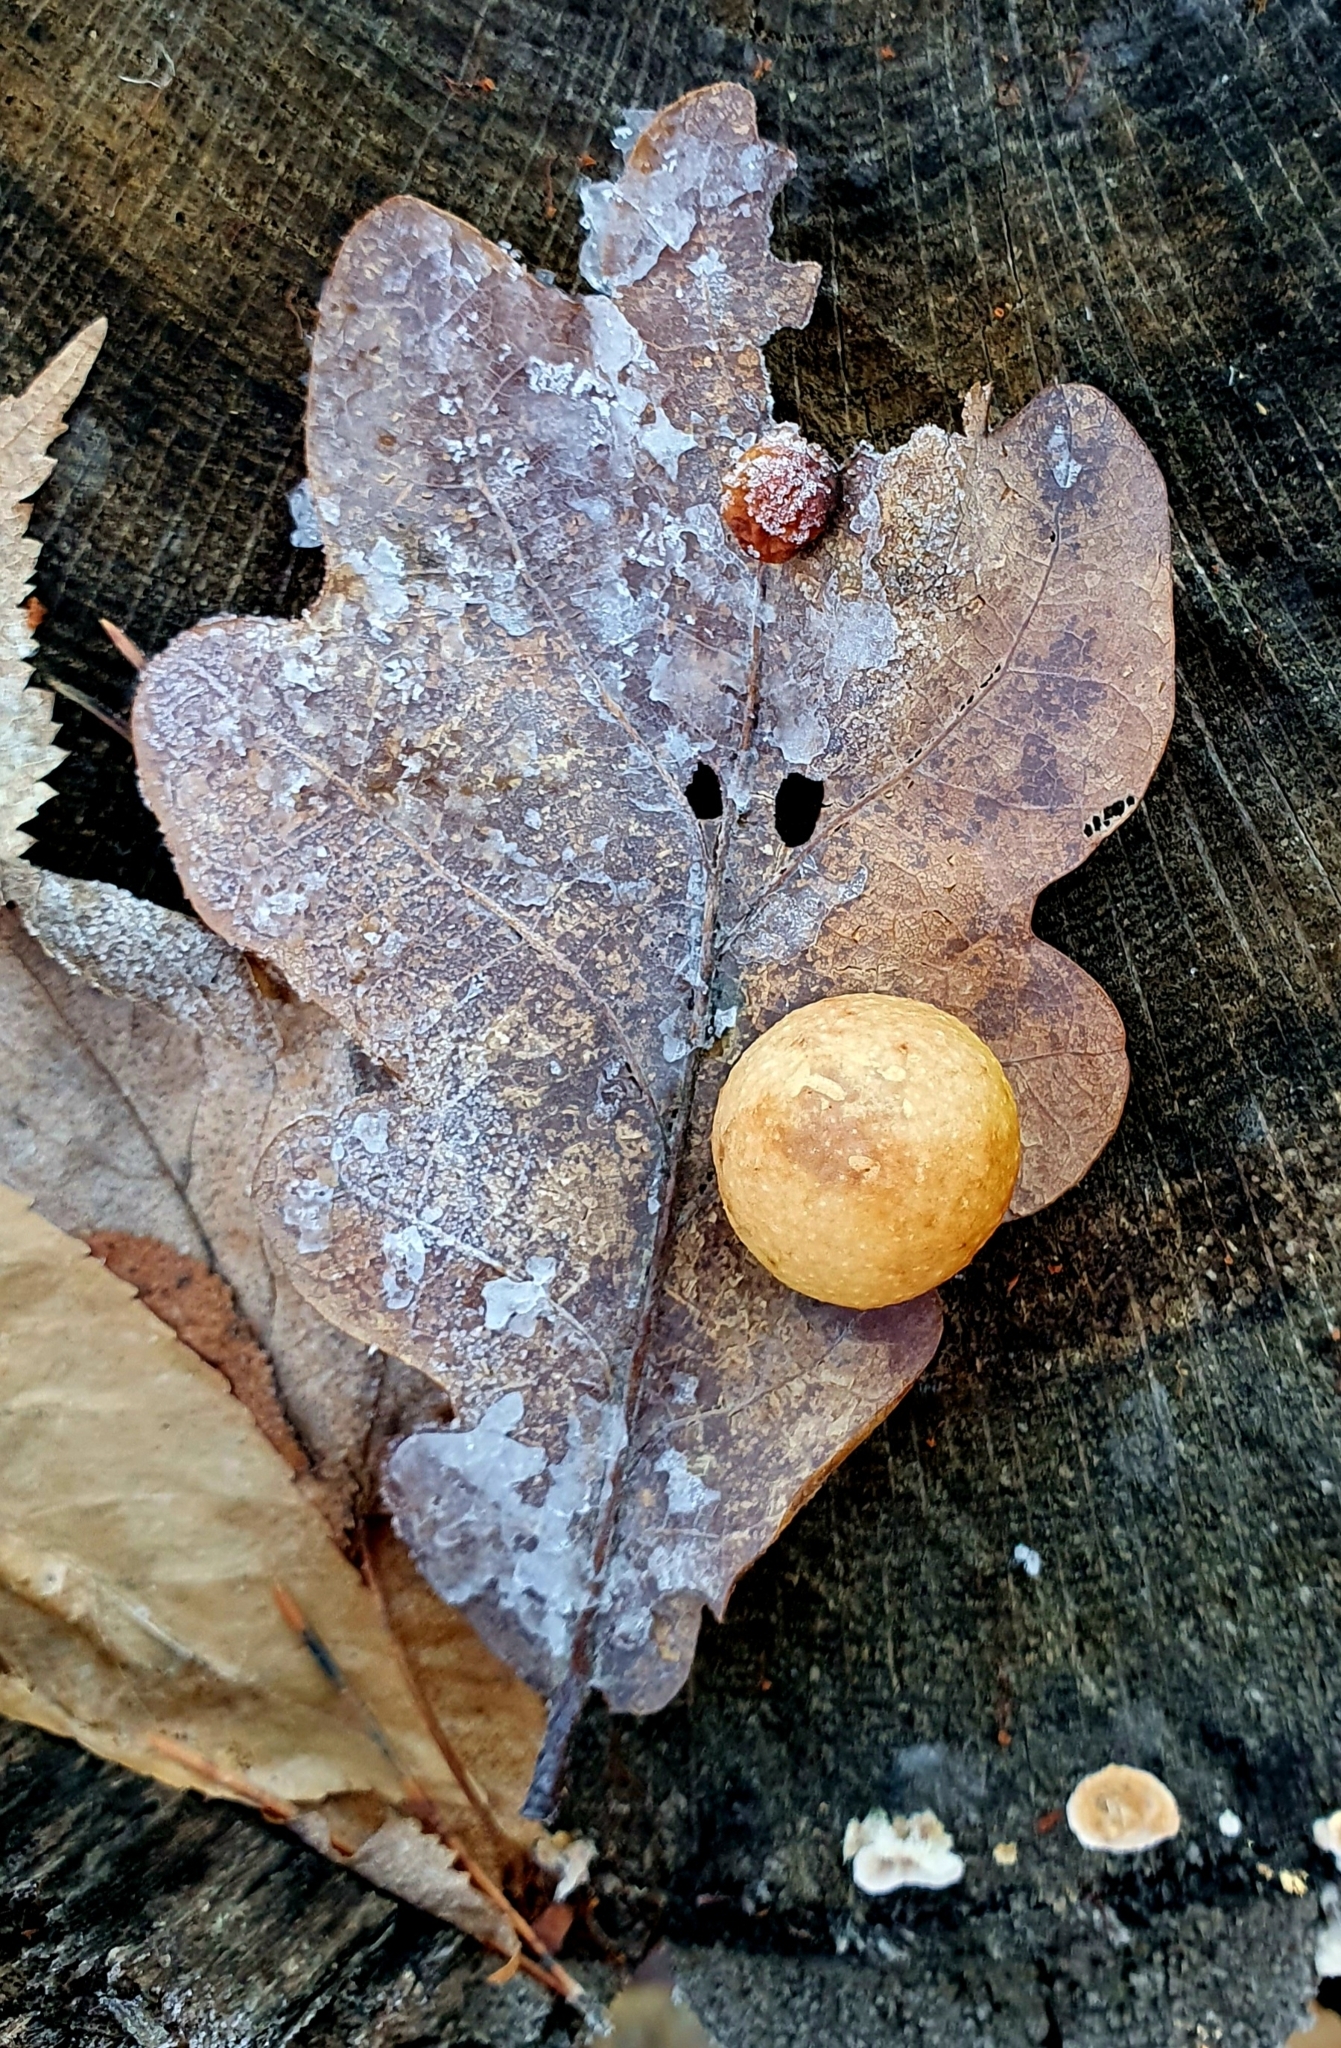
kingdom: Animalia
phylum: Arthropoda
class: Insecta
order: Hymenoptera
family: Cynipidae
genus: Cynips
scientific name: Cynips quercusfolii
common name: Cherry gall
